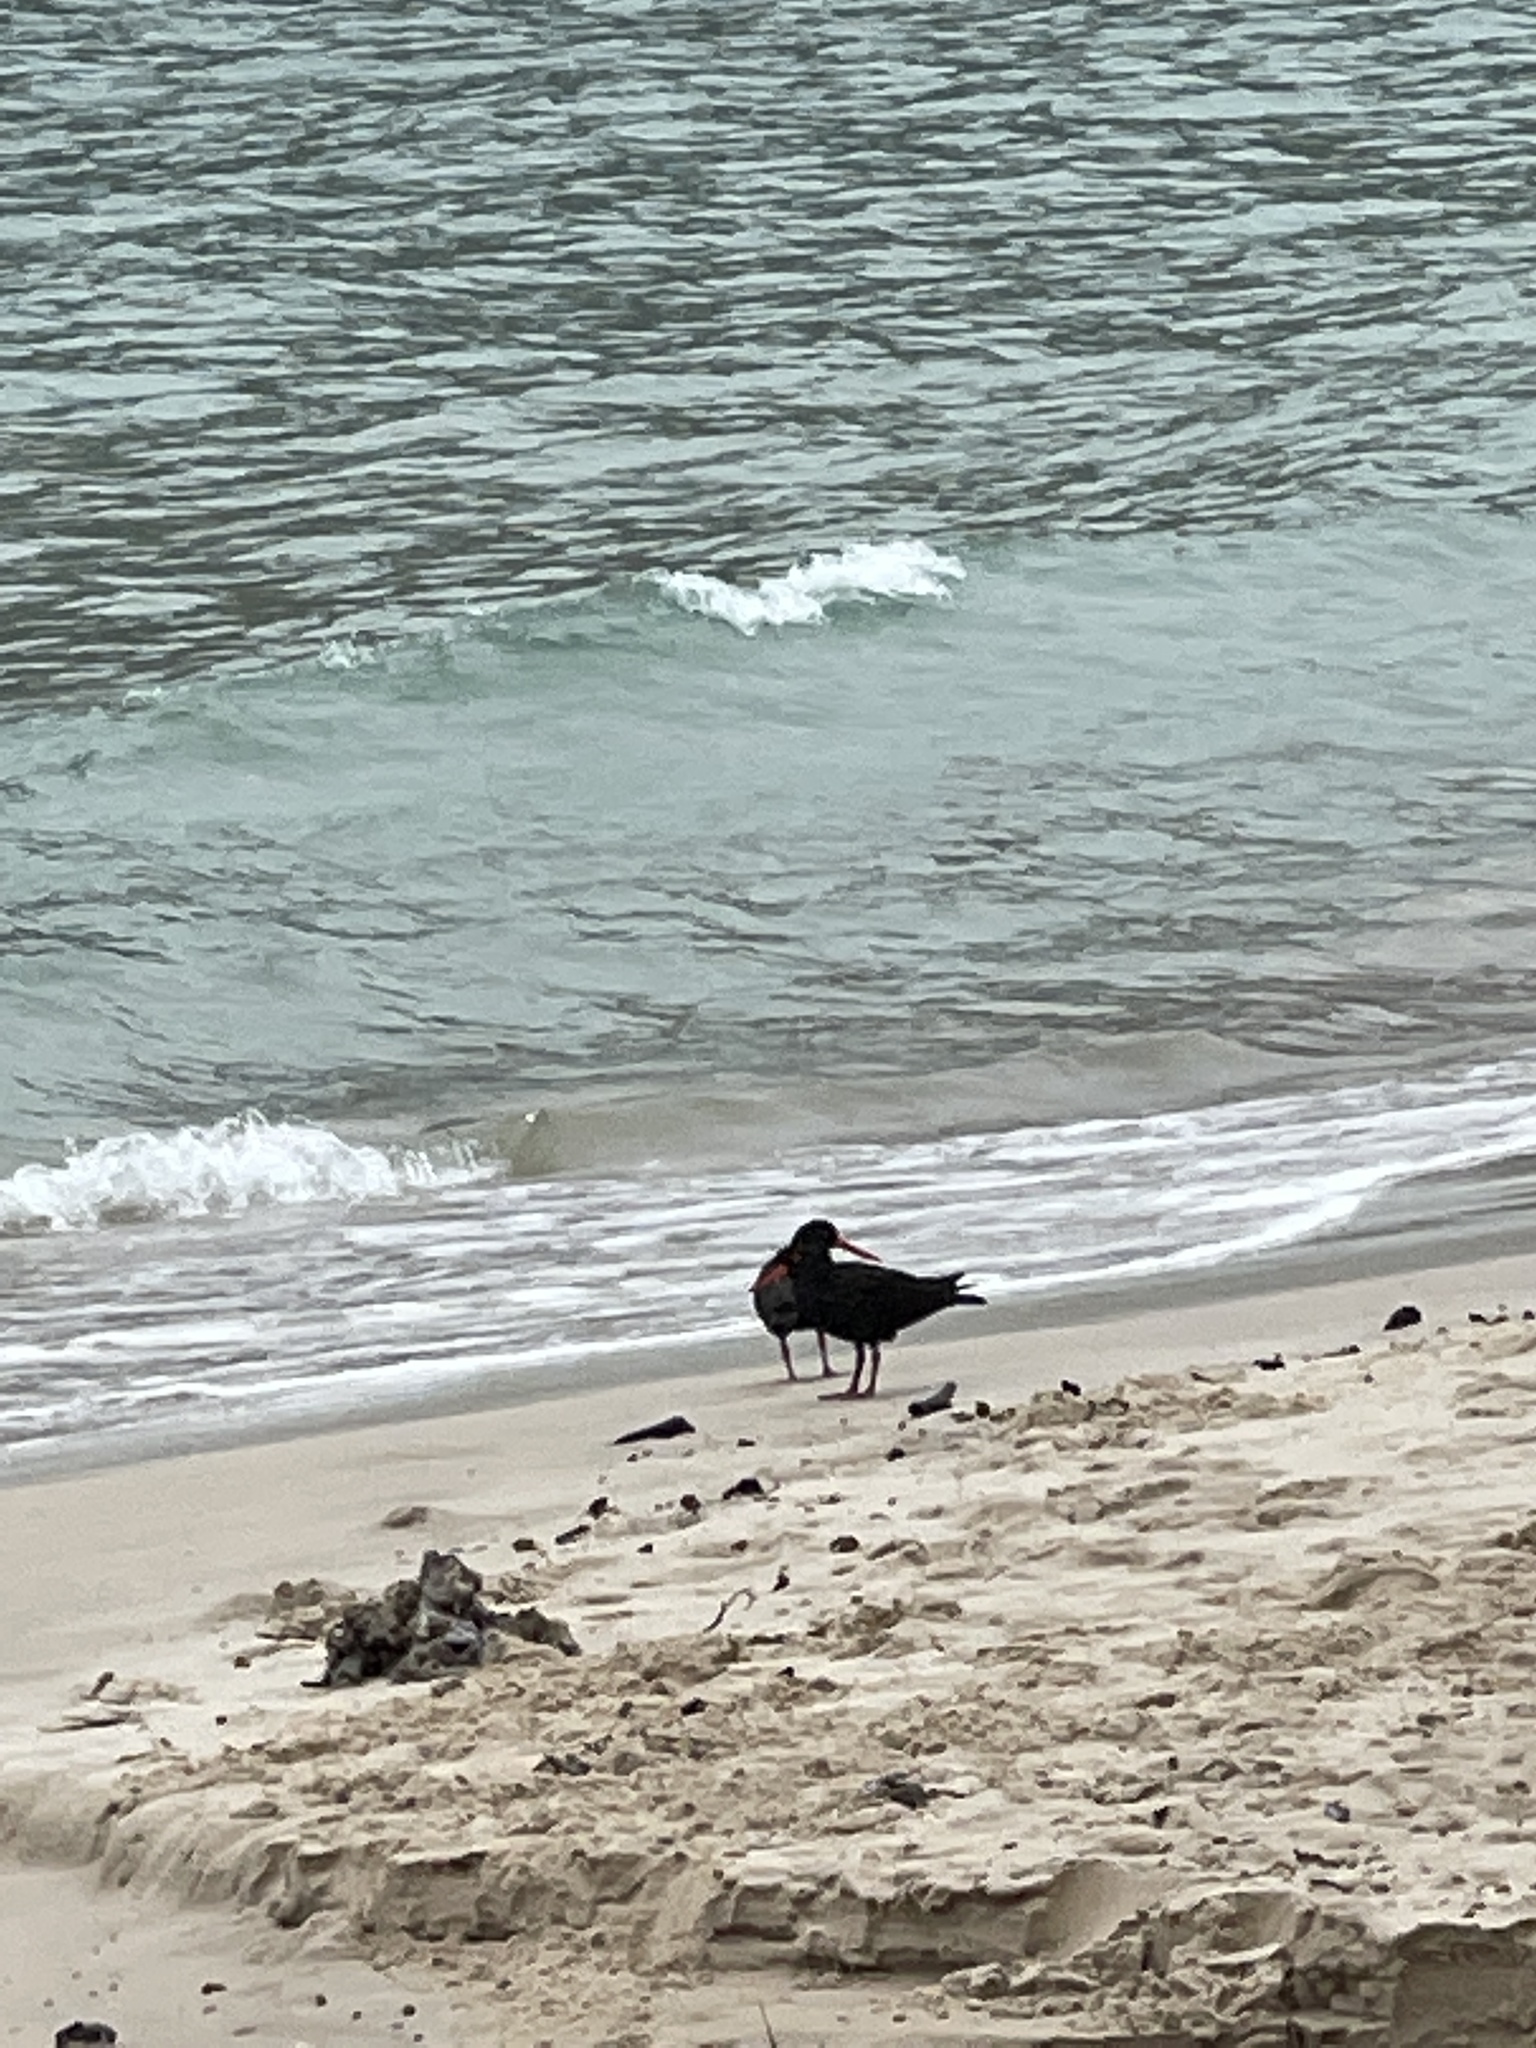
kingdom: Animalia
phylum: Chordata
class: Aves
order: Charadriiformes
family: Haematopodidae
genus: Haematopus
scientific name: Haematopus fuliginosus
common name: Sooty oystercatcher
